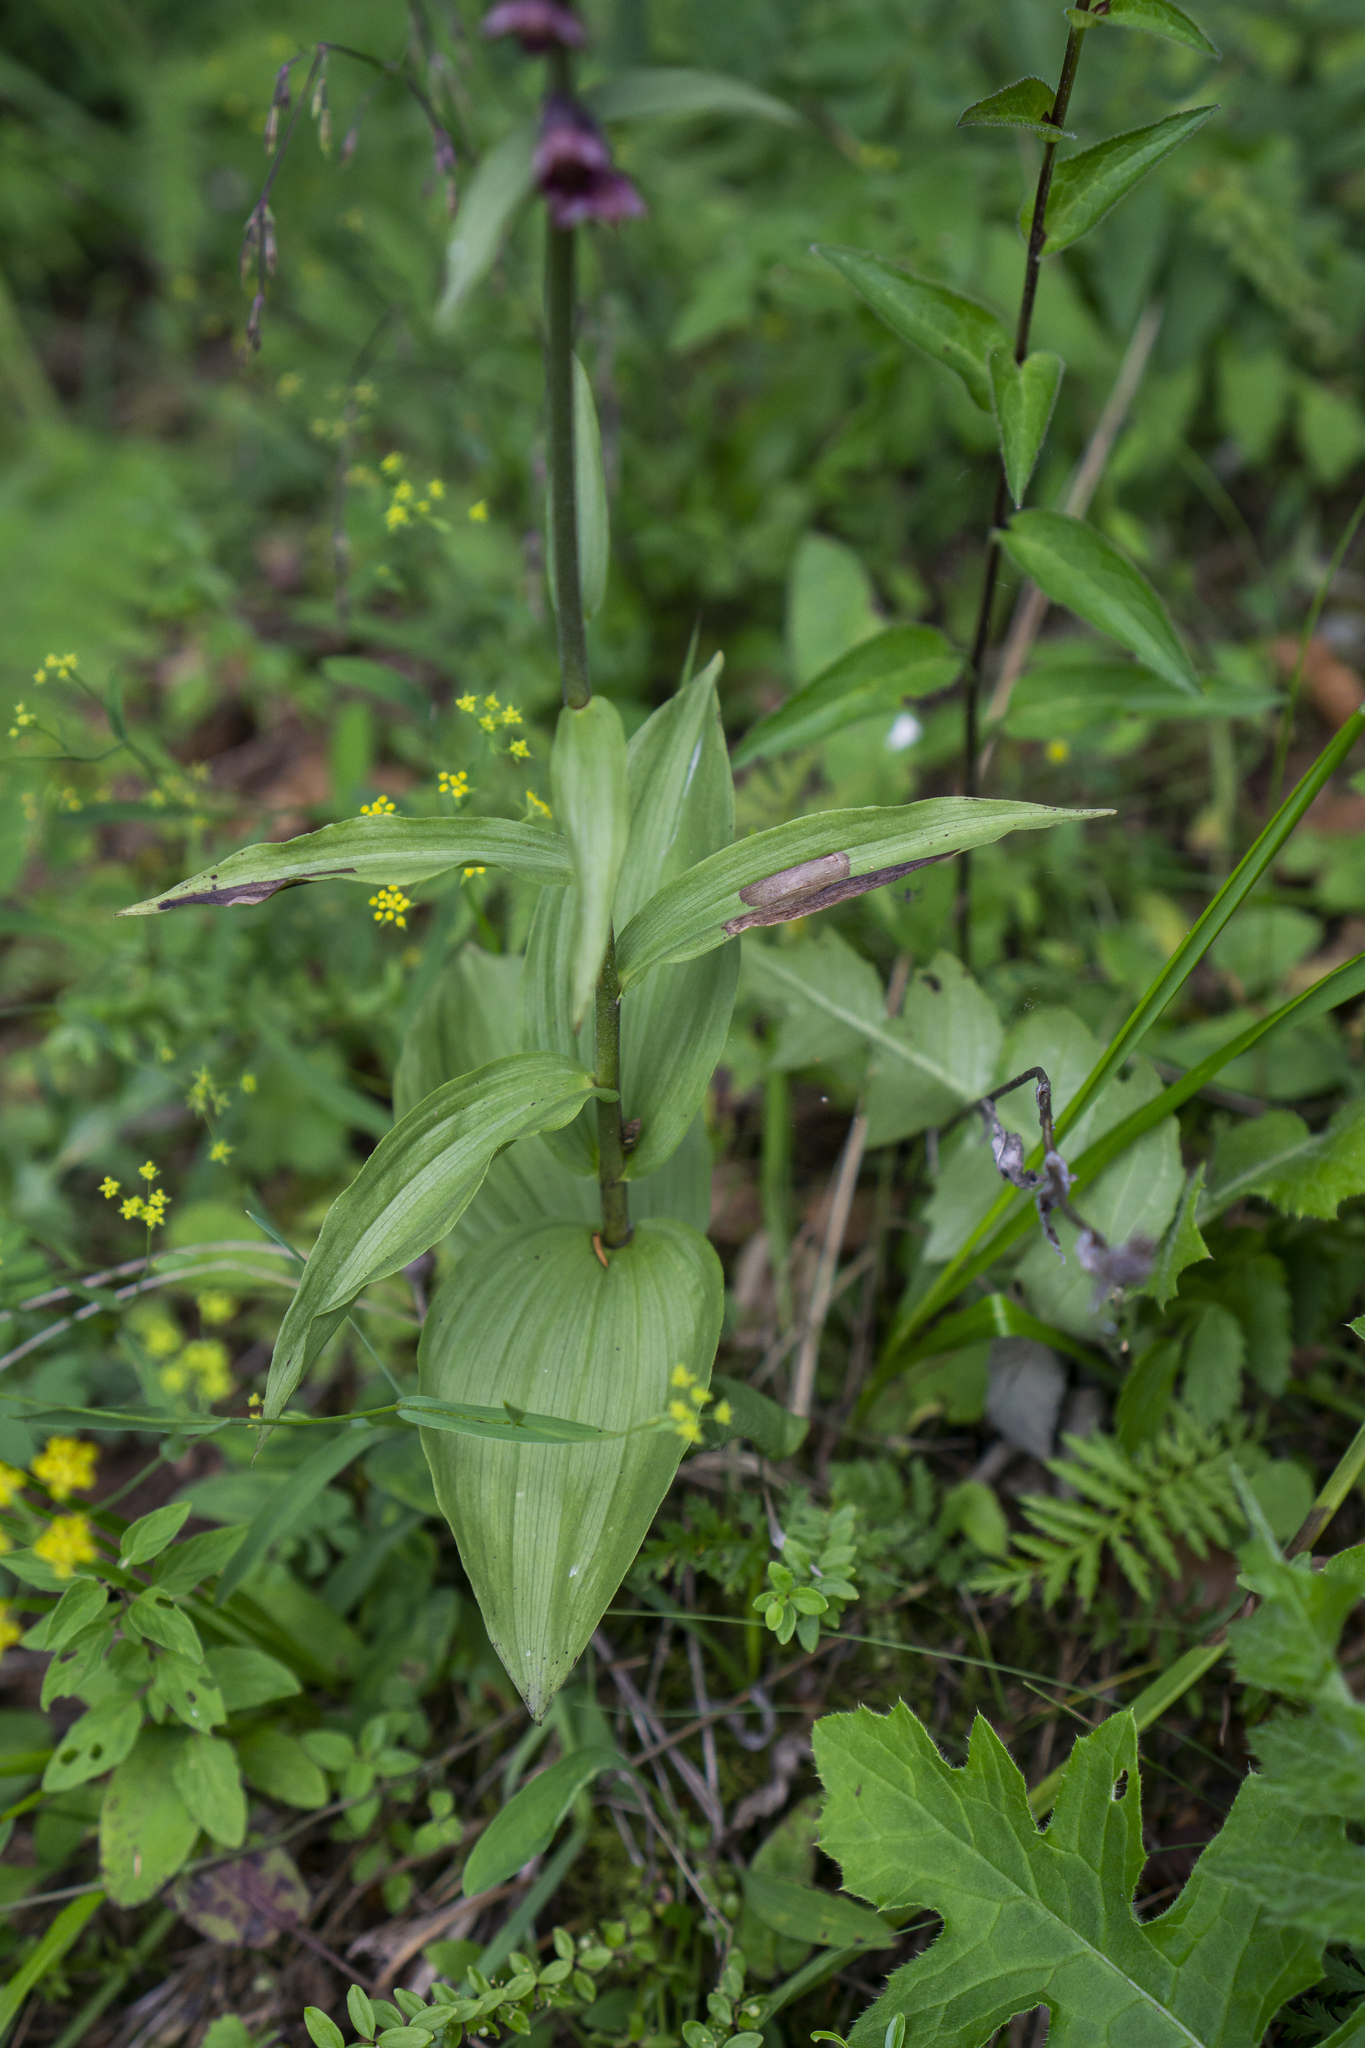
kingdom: Plantae
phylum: Tracheophyta
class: Liliopsida
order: Asparagales
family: Orchidaceae
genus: Epipactis
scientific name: Epipactis atrorubens
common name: Dark-red helleborine
